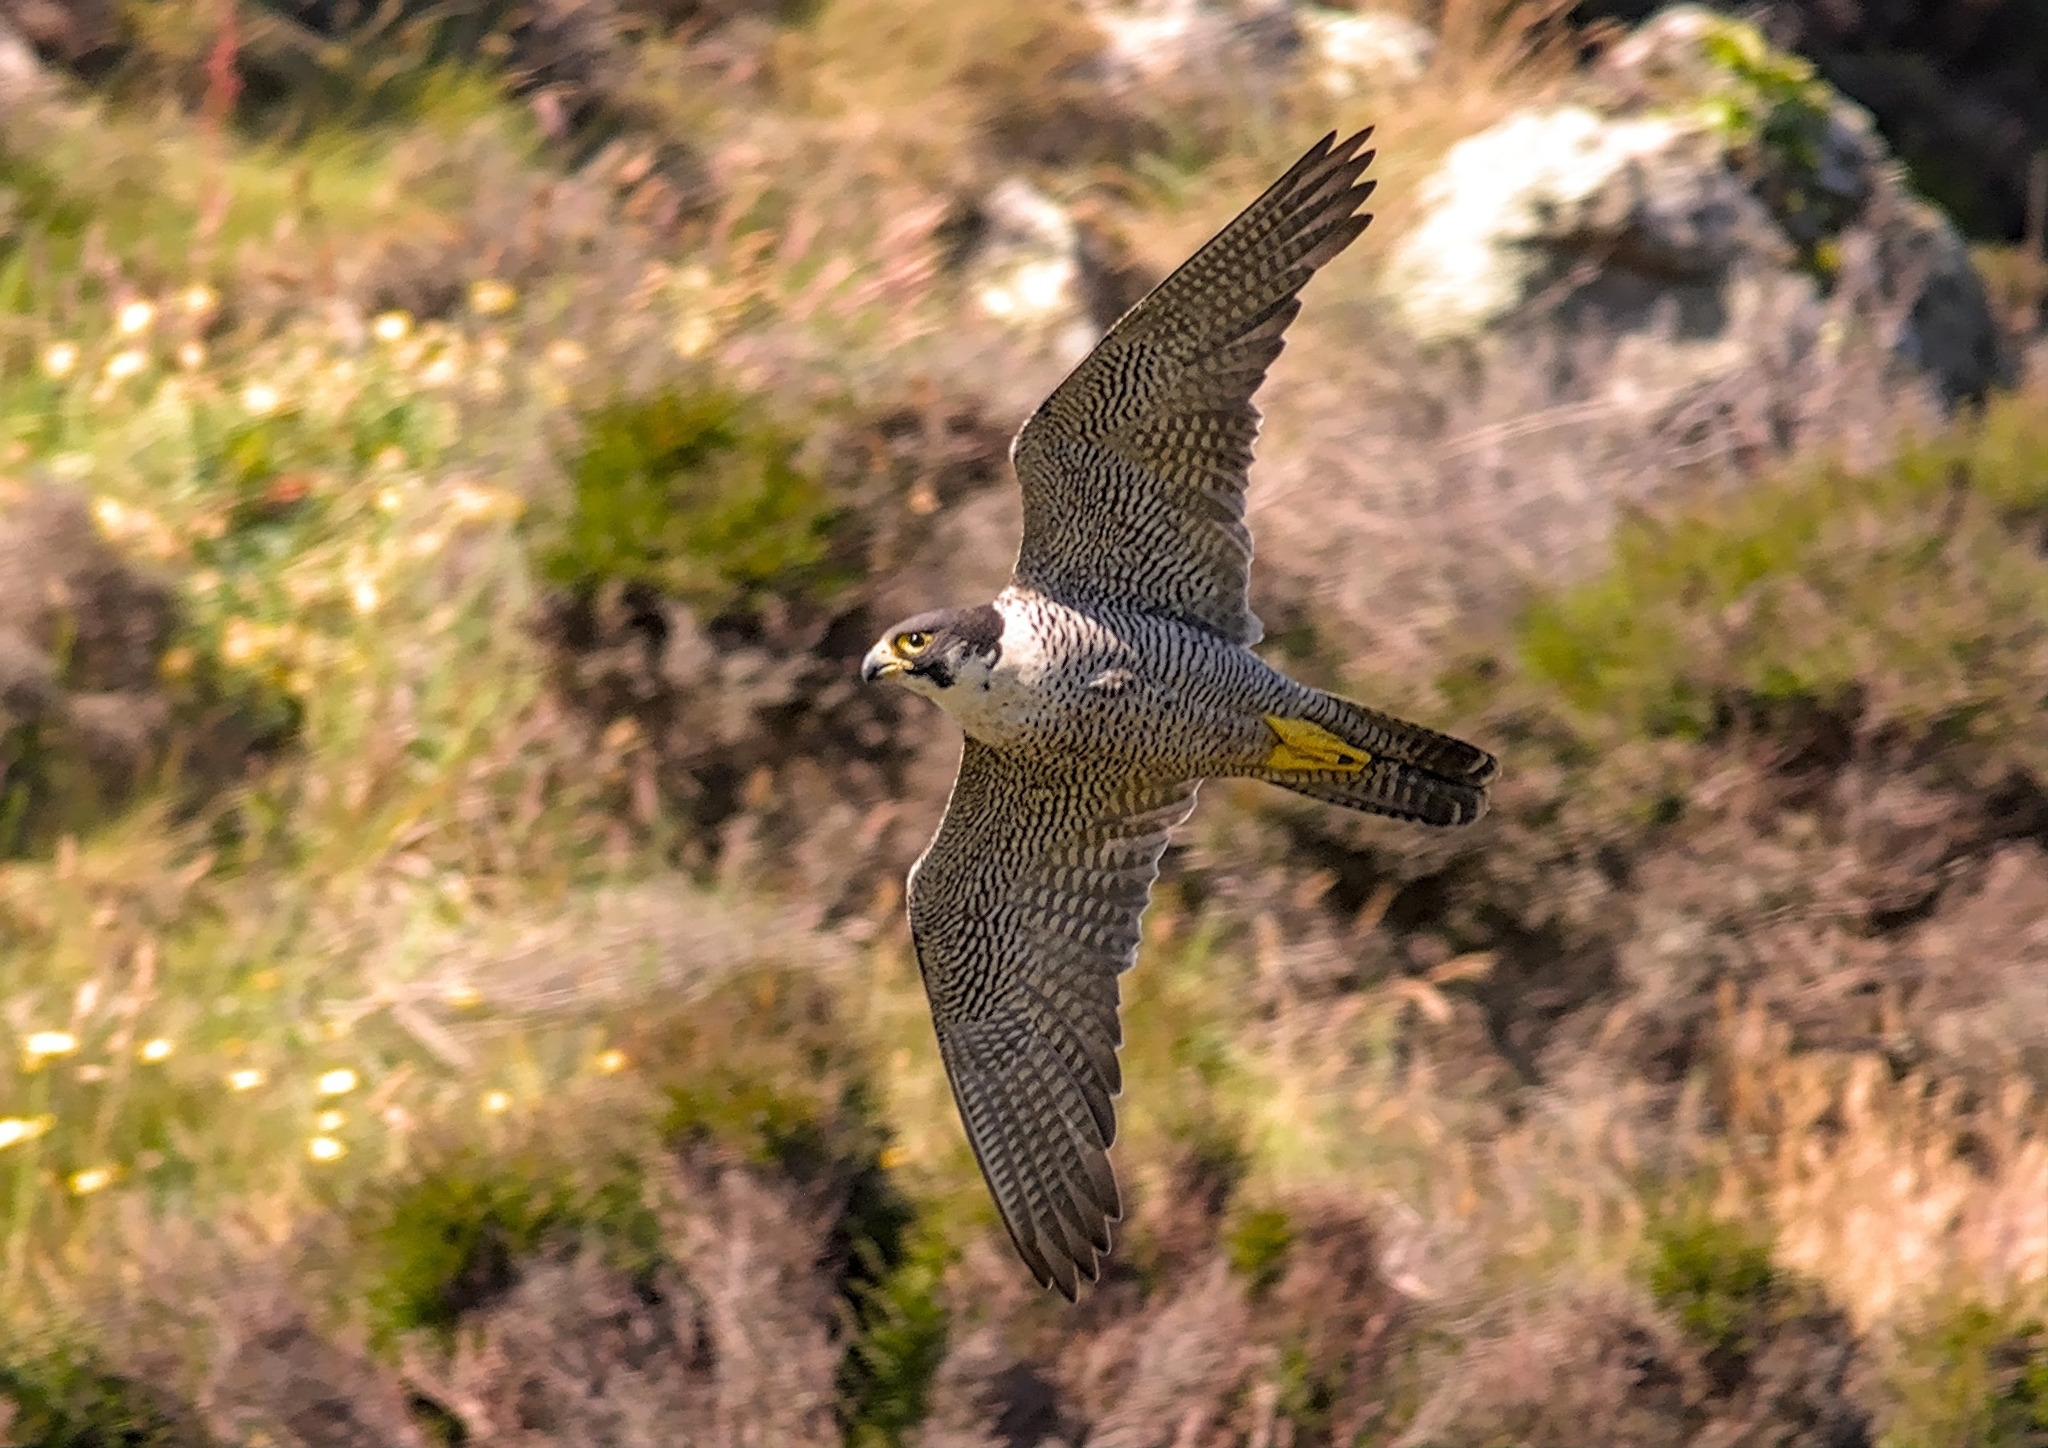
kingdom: Animalia
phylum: Chordata
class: Aves
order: Falconiformes
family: Falconidae
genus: Falco
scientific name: Falco peregrinus
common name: Peregrine falcon
